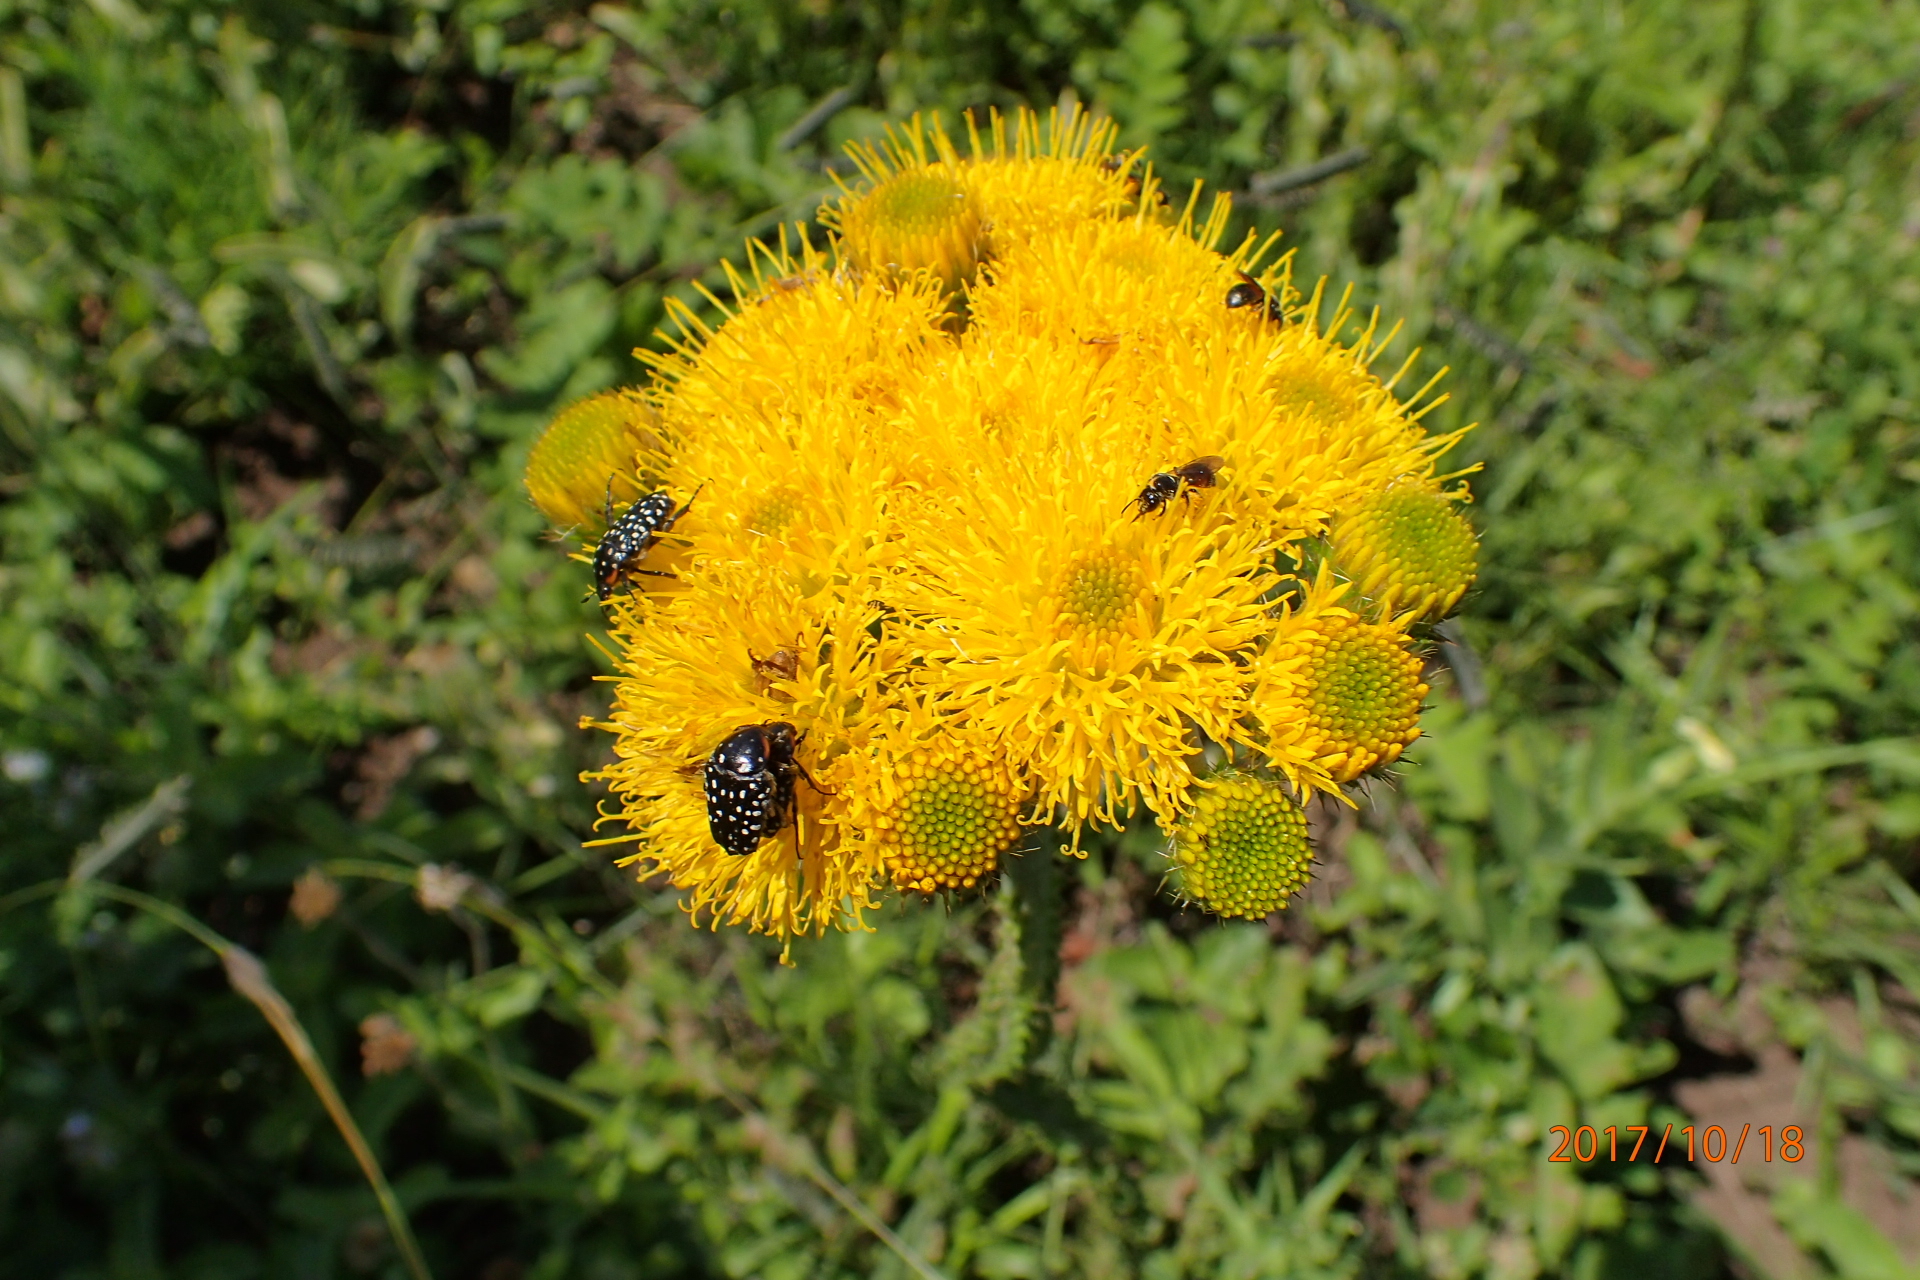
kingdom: Plantae
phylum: Tracheophyta
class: Magnoliopsida
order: Asterales
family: Asteraceae
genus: Berkheya
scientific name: Berkheya umbellata
